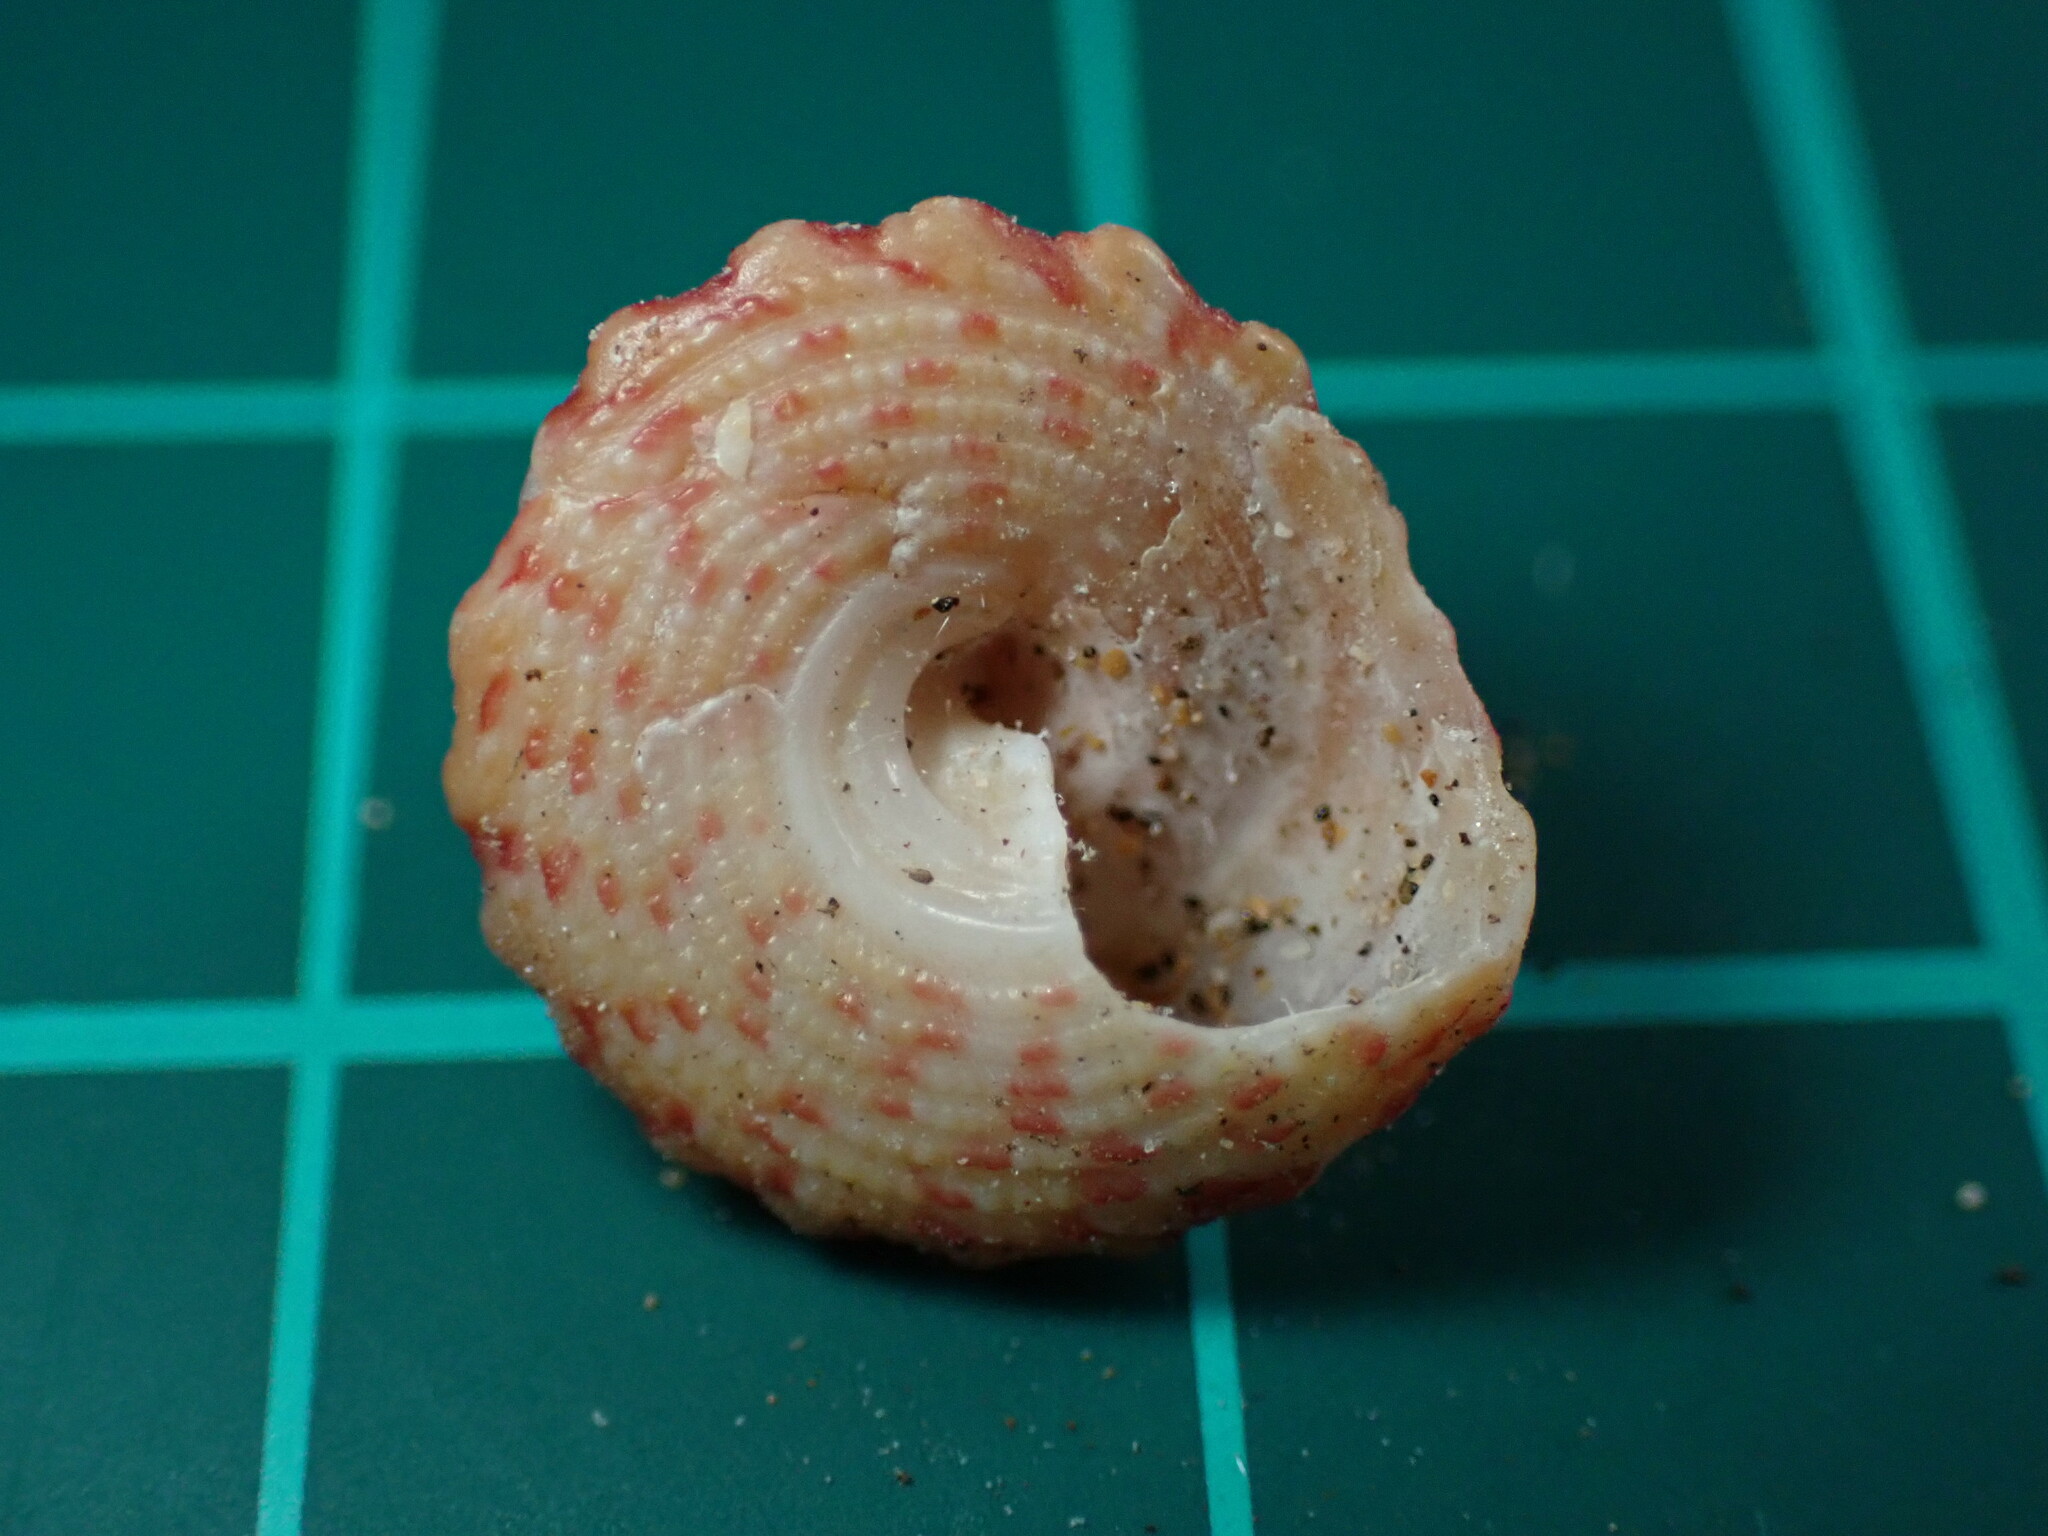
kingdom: Animalia
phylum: Mollusca
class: Gastropoda
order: Trochida
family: Trochidae
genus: Trochus
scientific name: Trochus intextus
